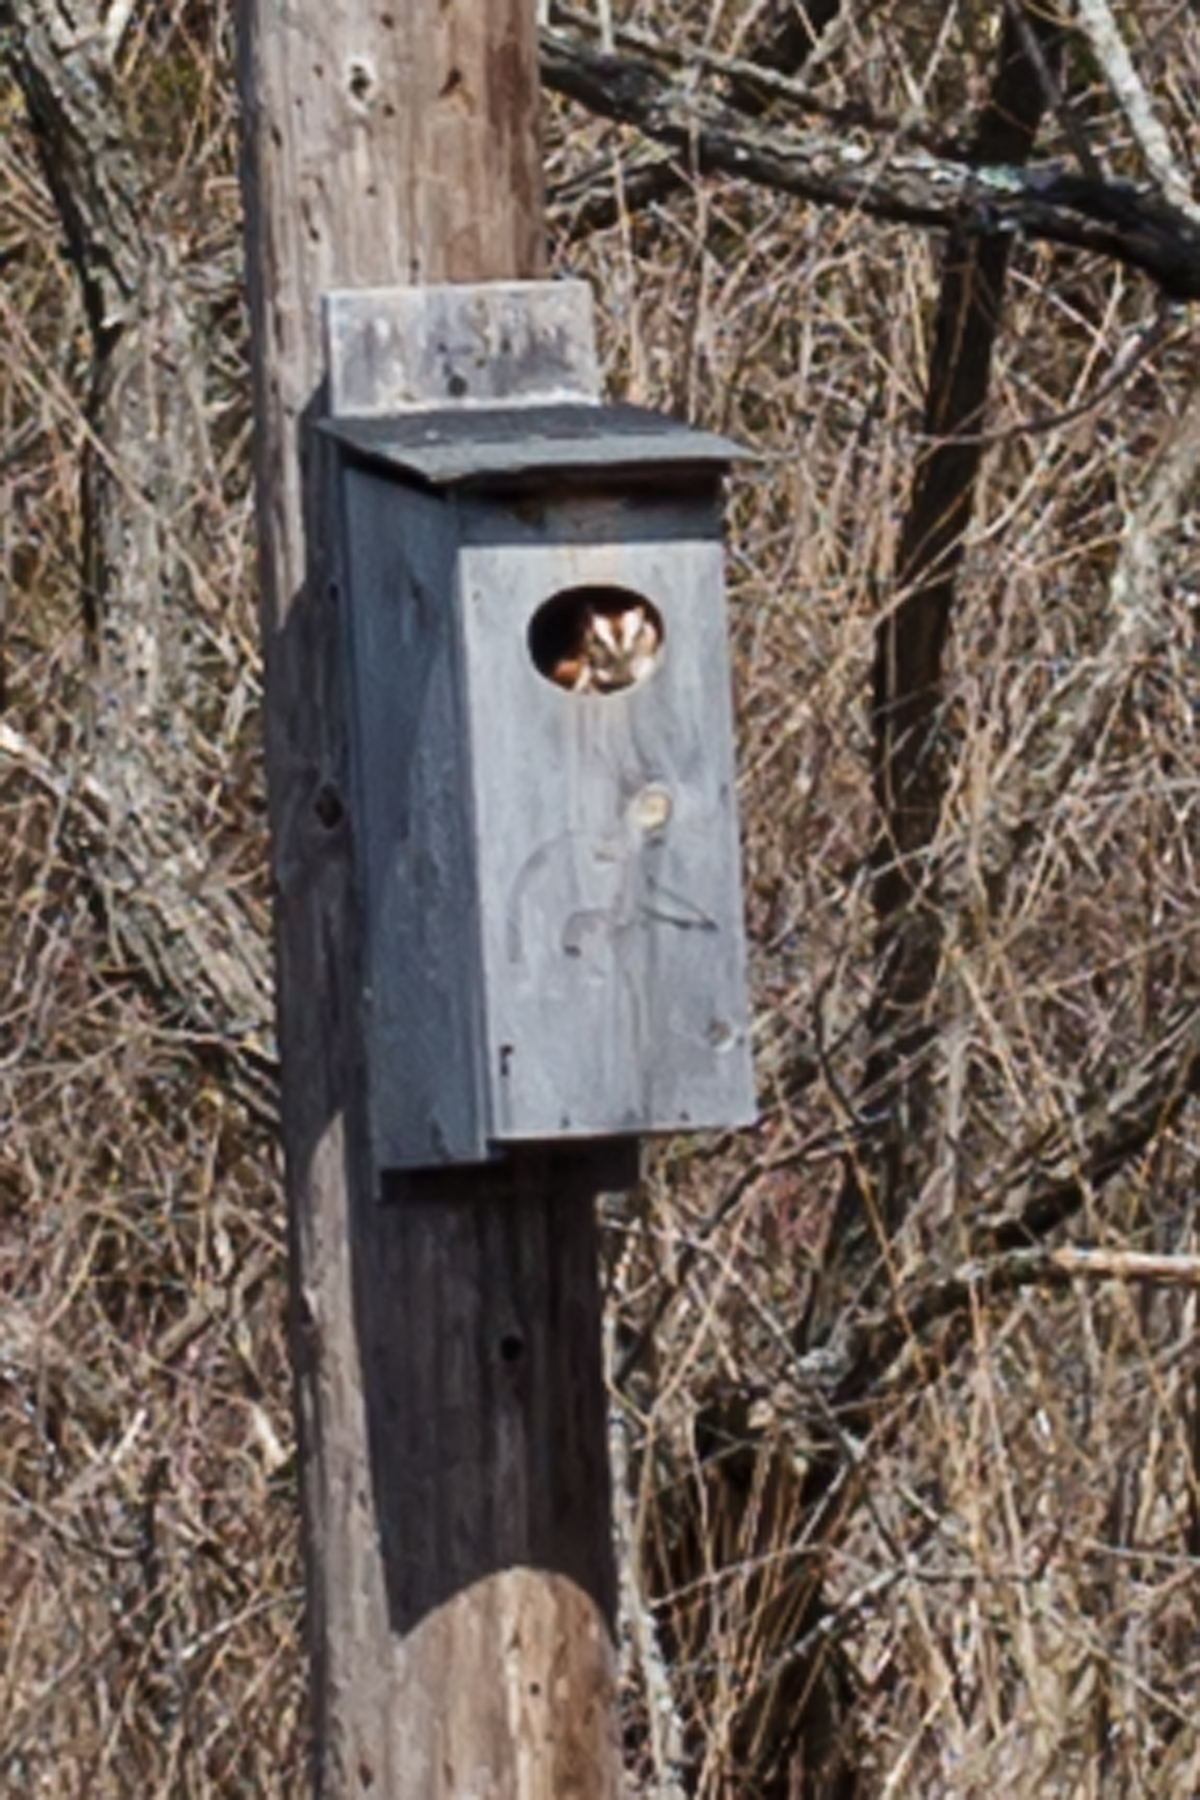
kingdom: Animalia
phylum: Chordata
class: Aves
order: Strigiformes
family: Strigidae
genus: Megascops
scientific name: Megascops asio
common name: Eastern screech-owl
